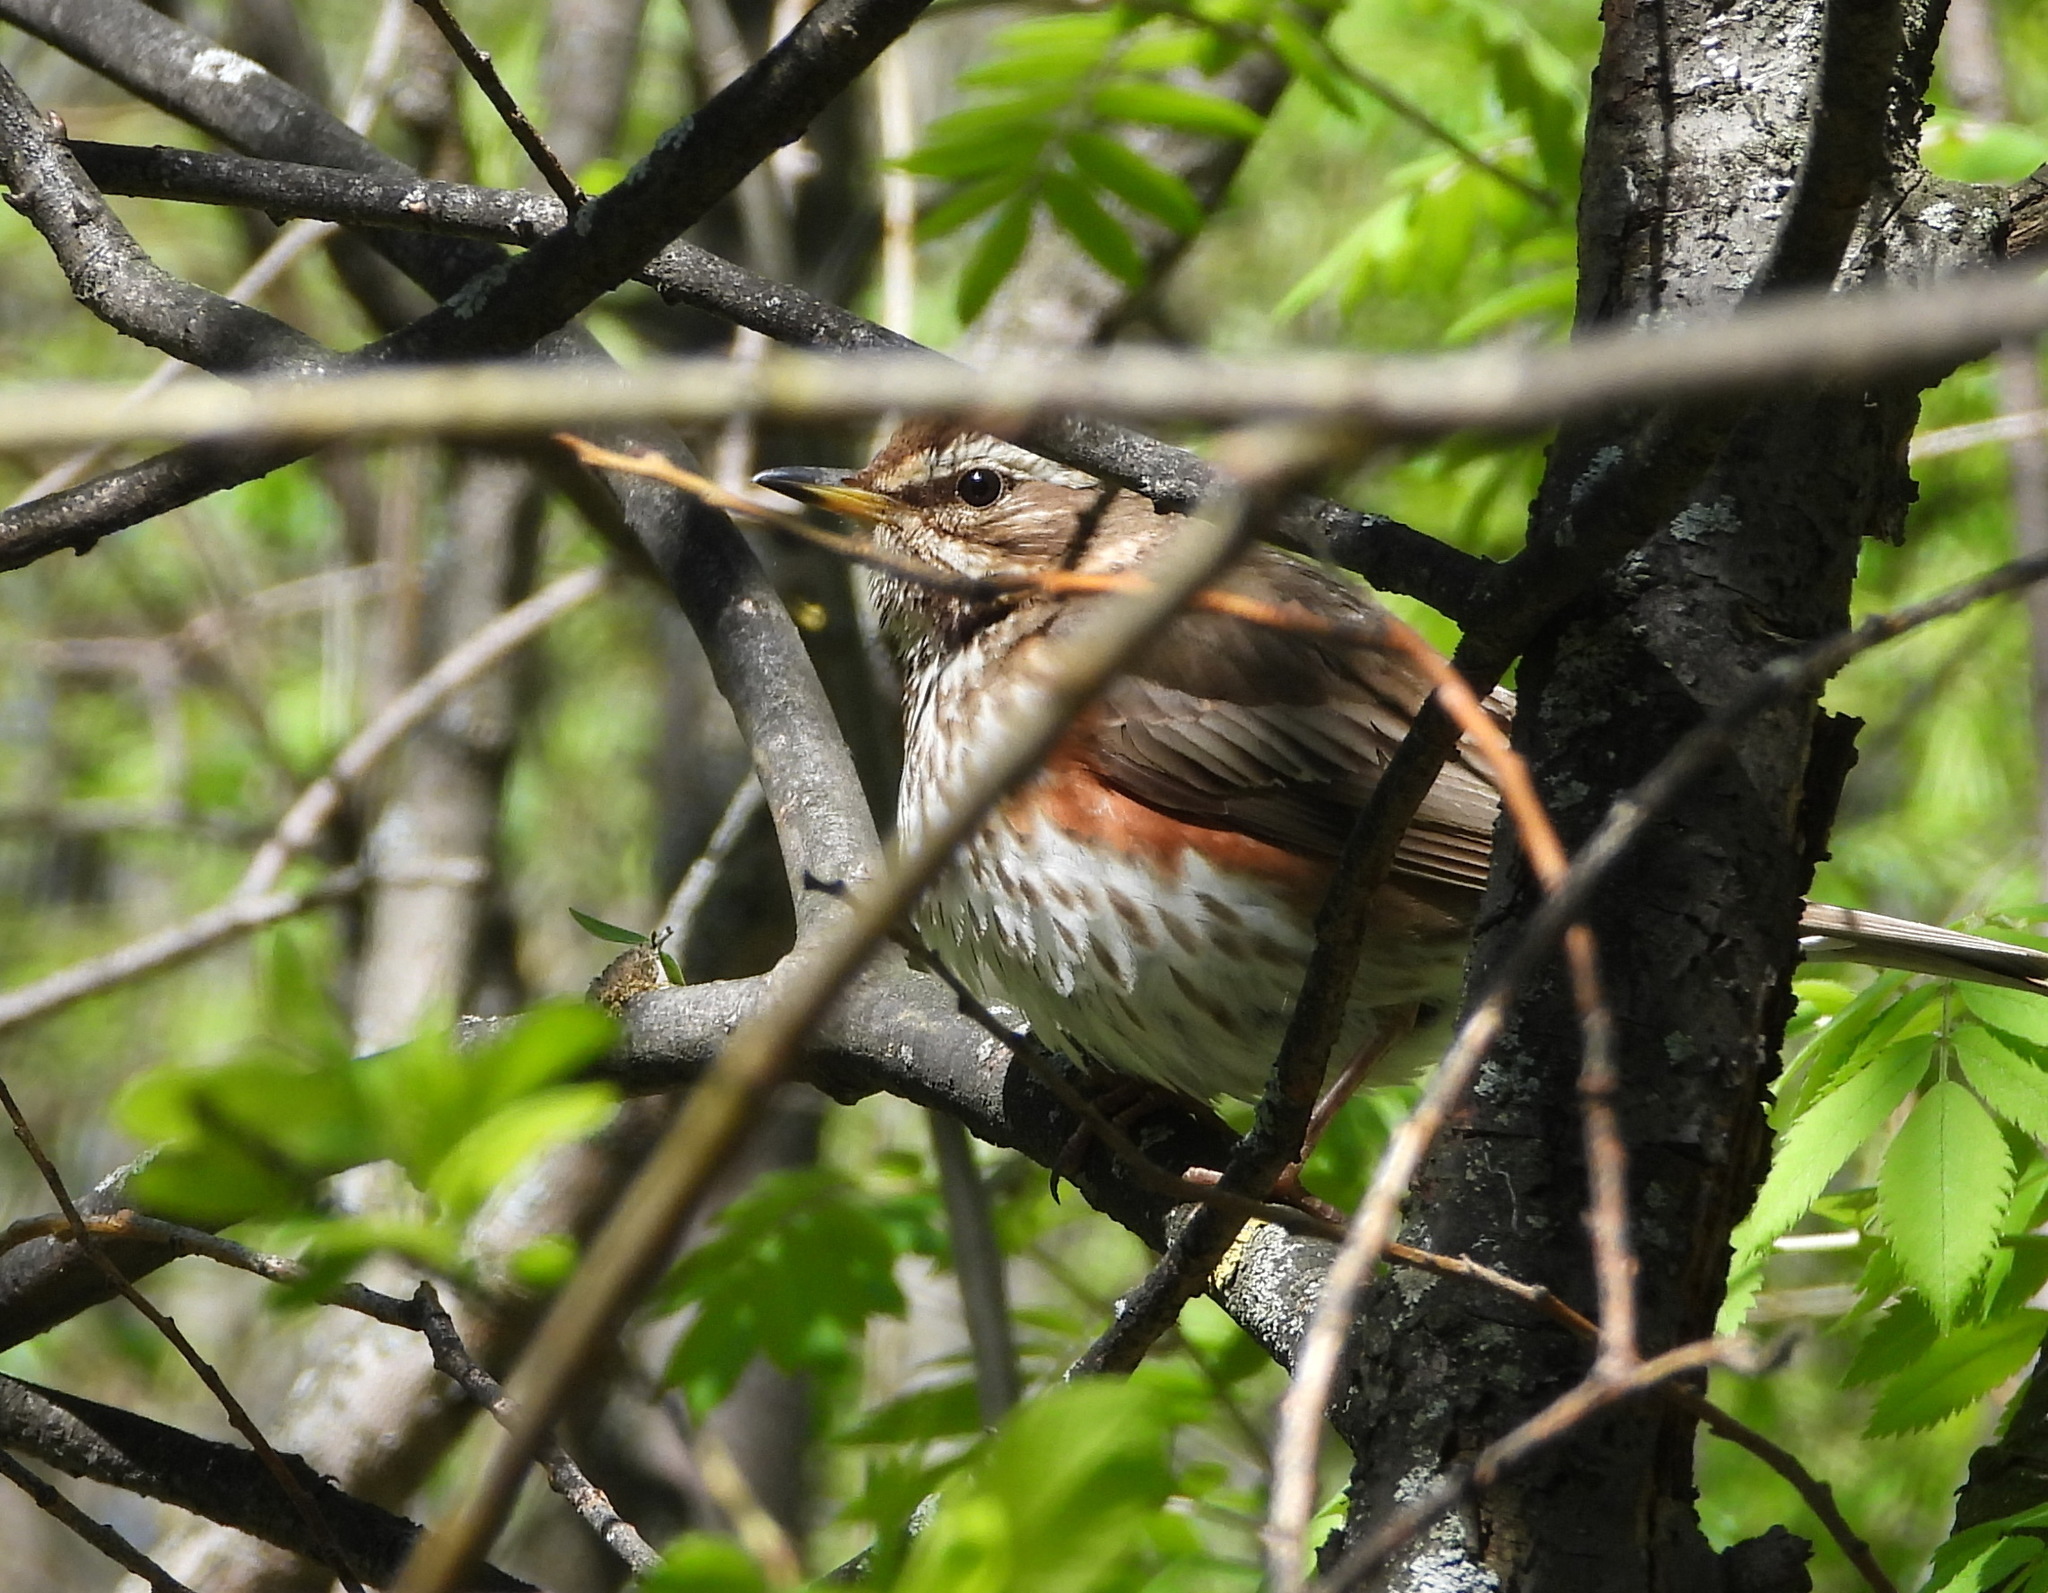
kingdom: Animalia
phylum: Chordata
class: Aves
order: Passeriformes
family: Turdidae
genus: Turdus
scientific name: Turdus iliacus
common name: Redwing
